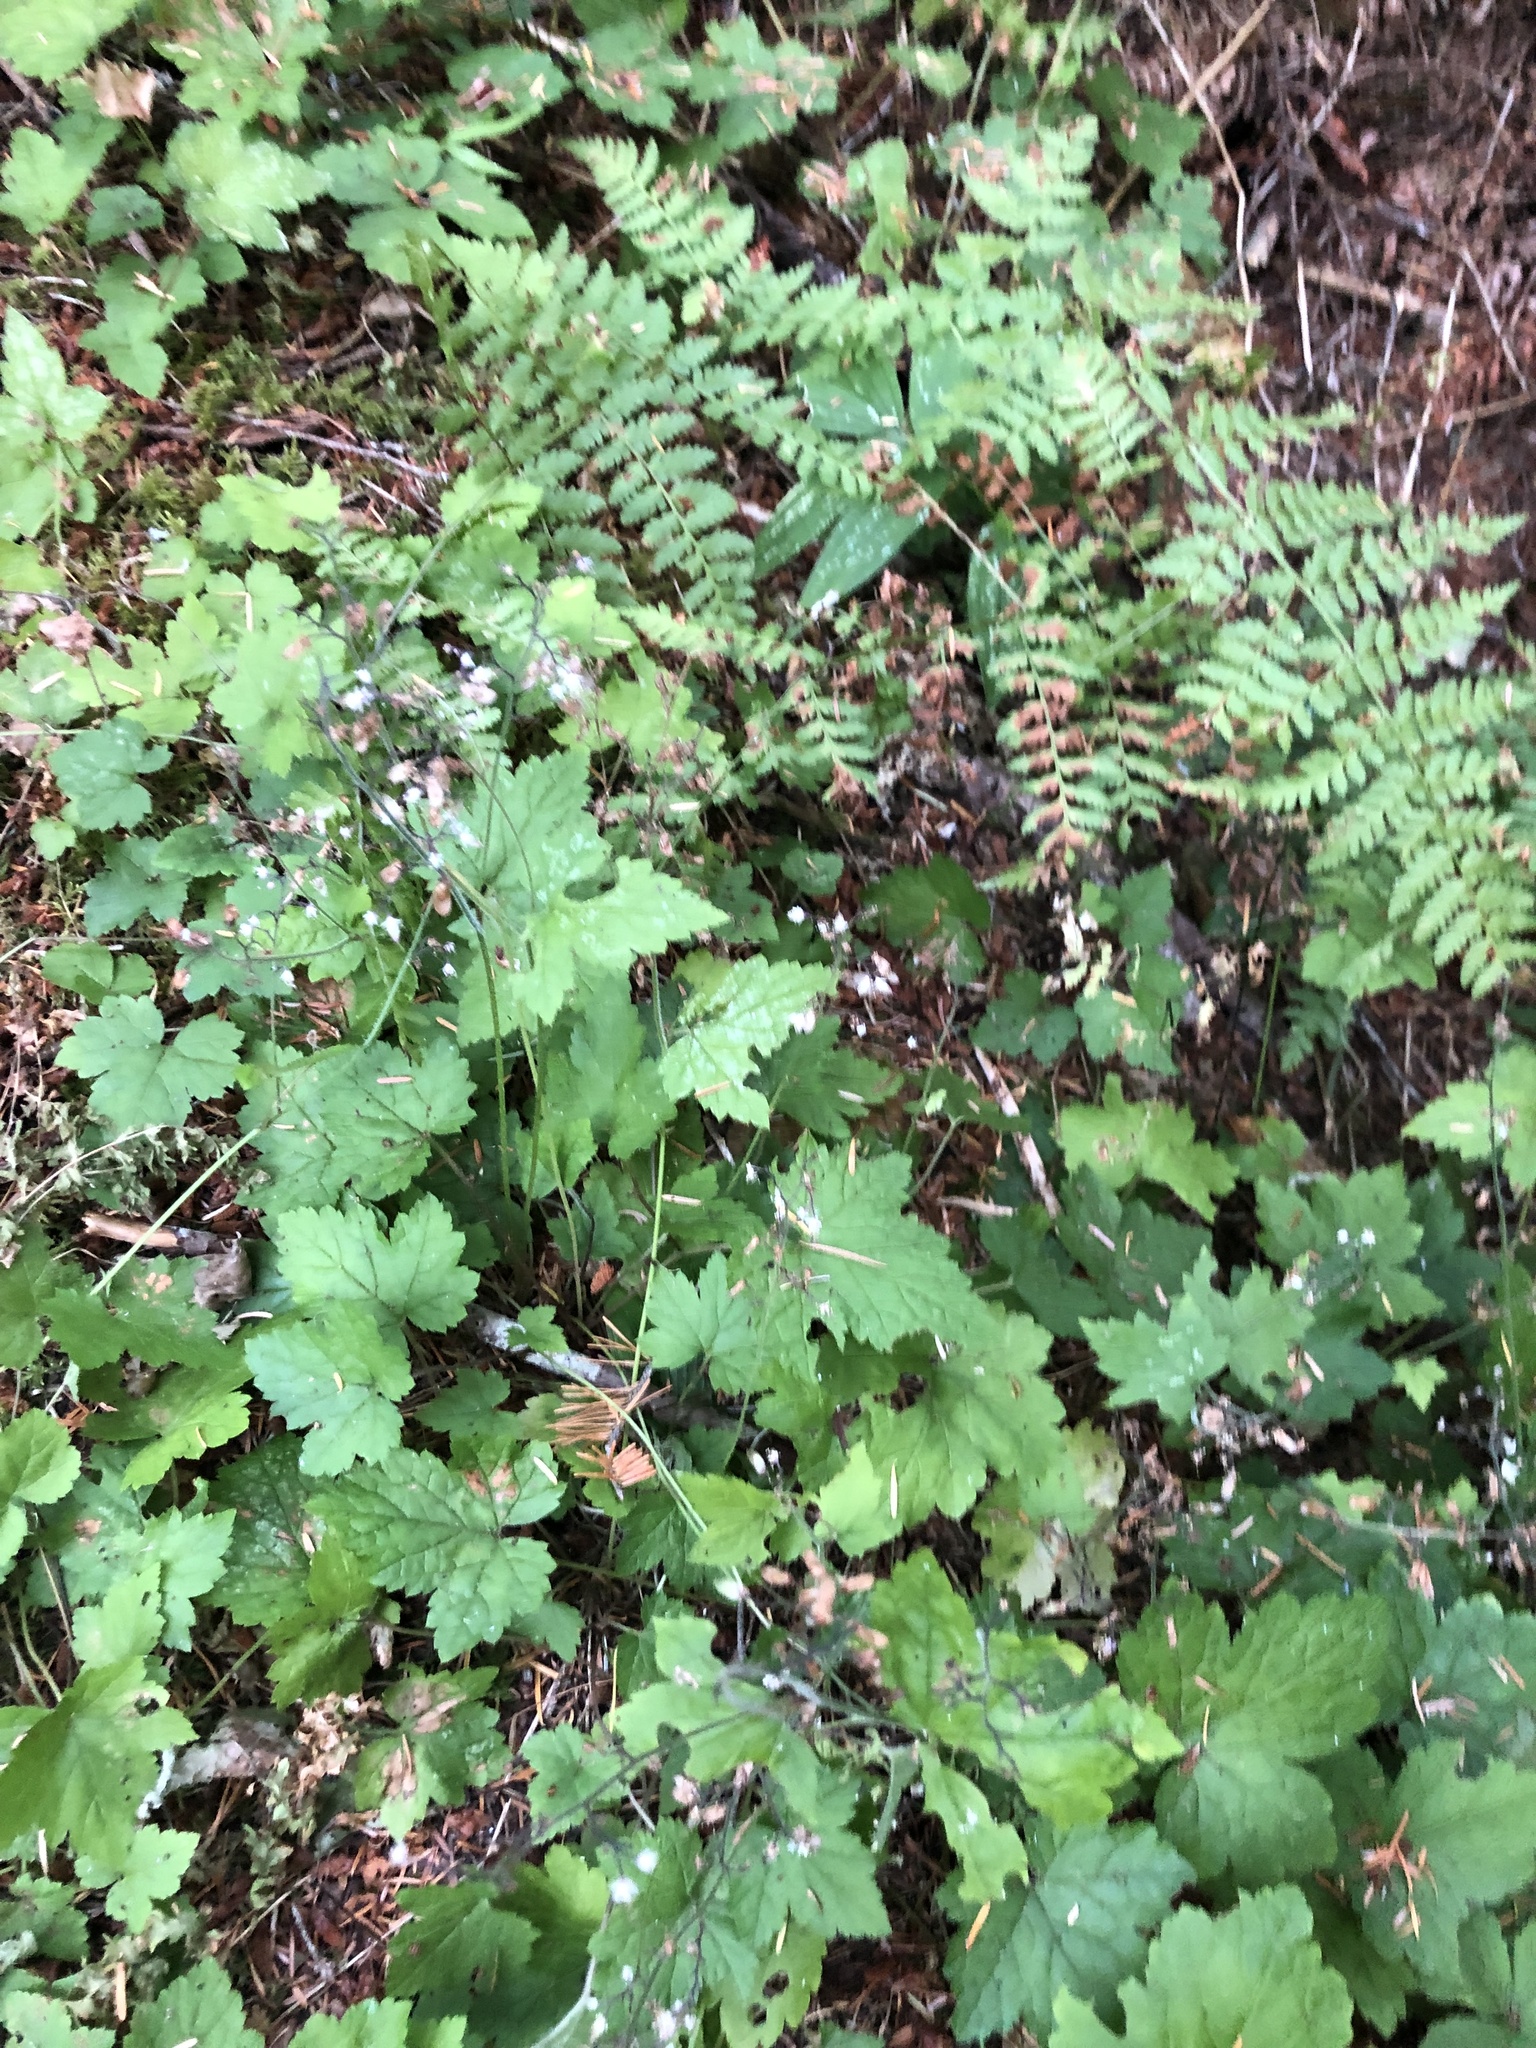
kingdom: Plantae
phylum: Tracheophyta
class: Magnoliopsida
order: Saxifragales
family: Saxifragaceae
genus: Tiarella
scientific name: Tiarella trifoliata
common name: Sugar-scoop
